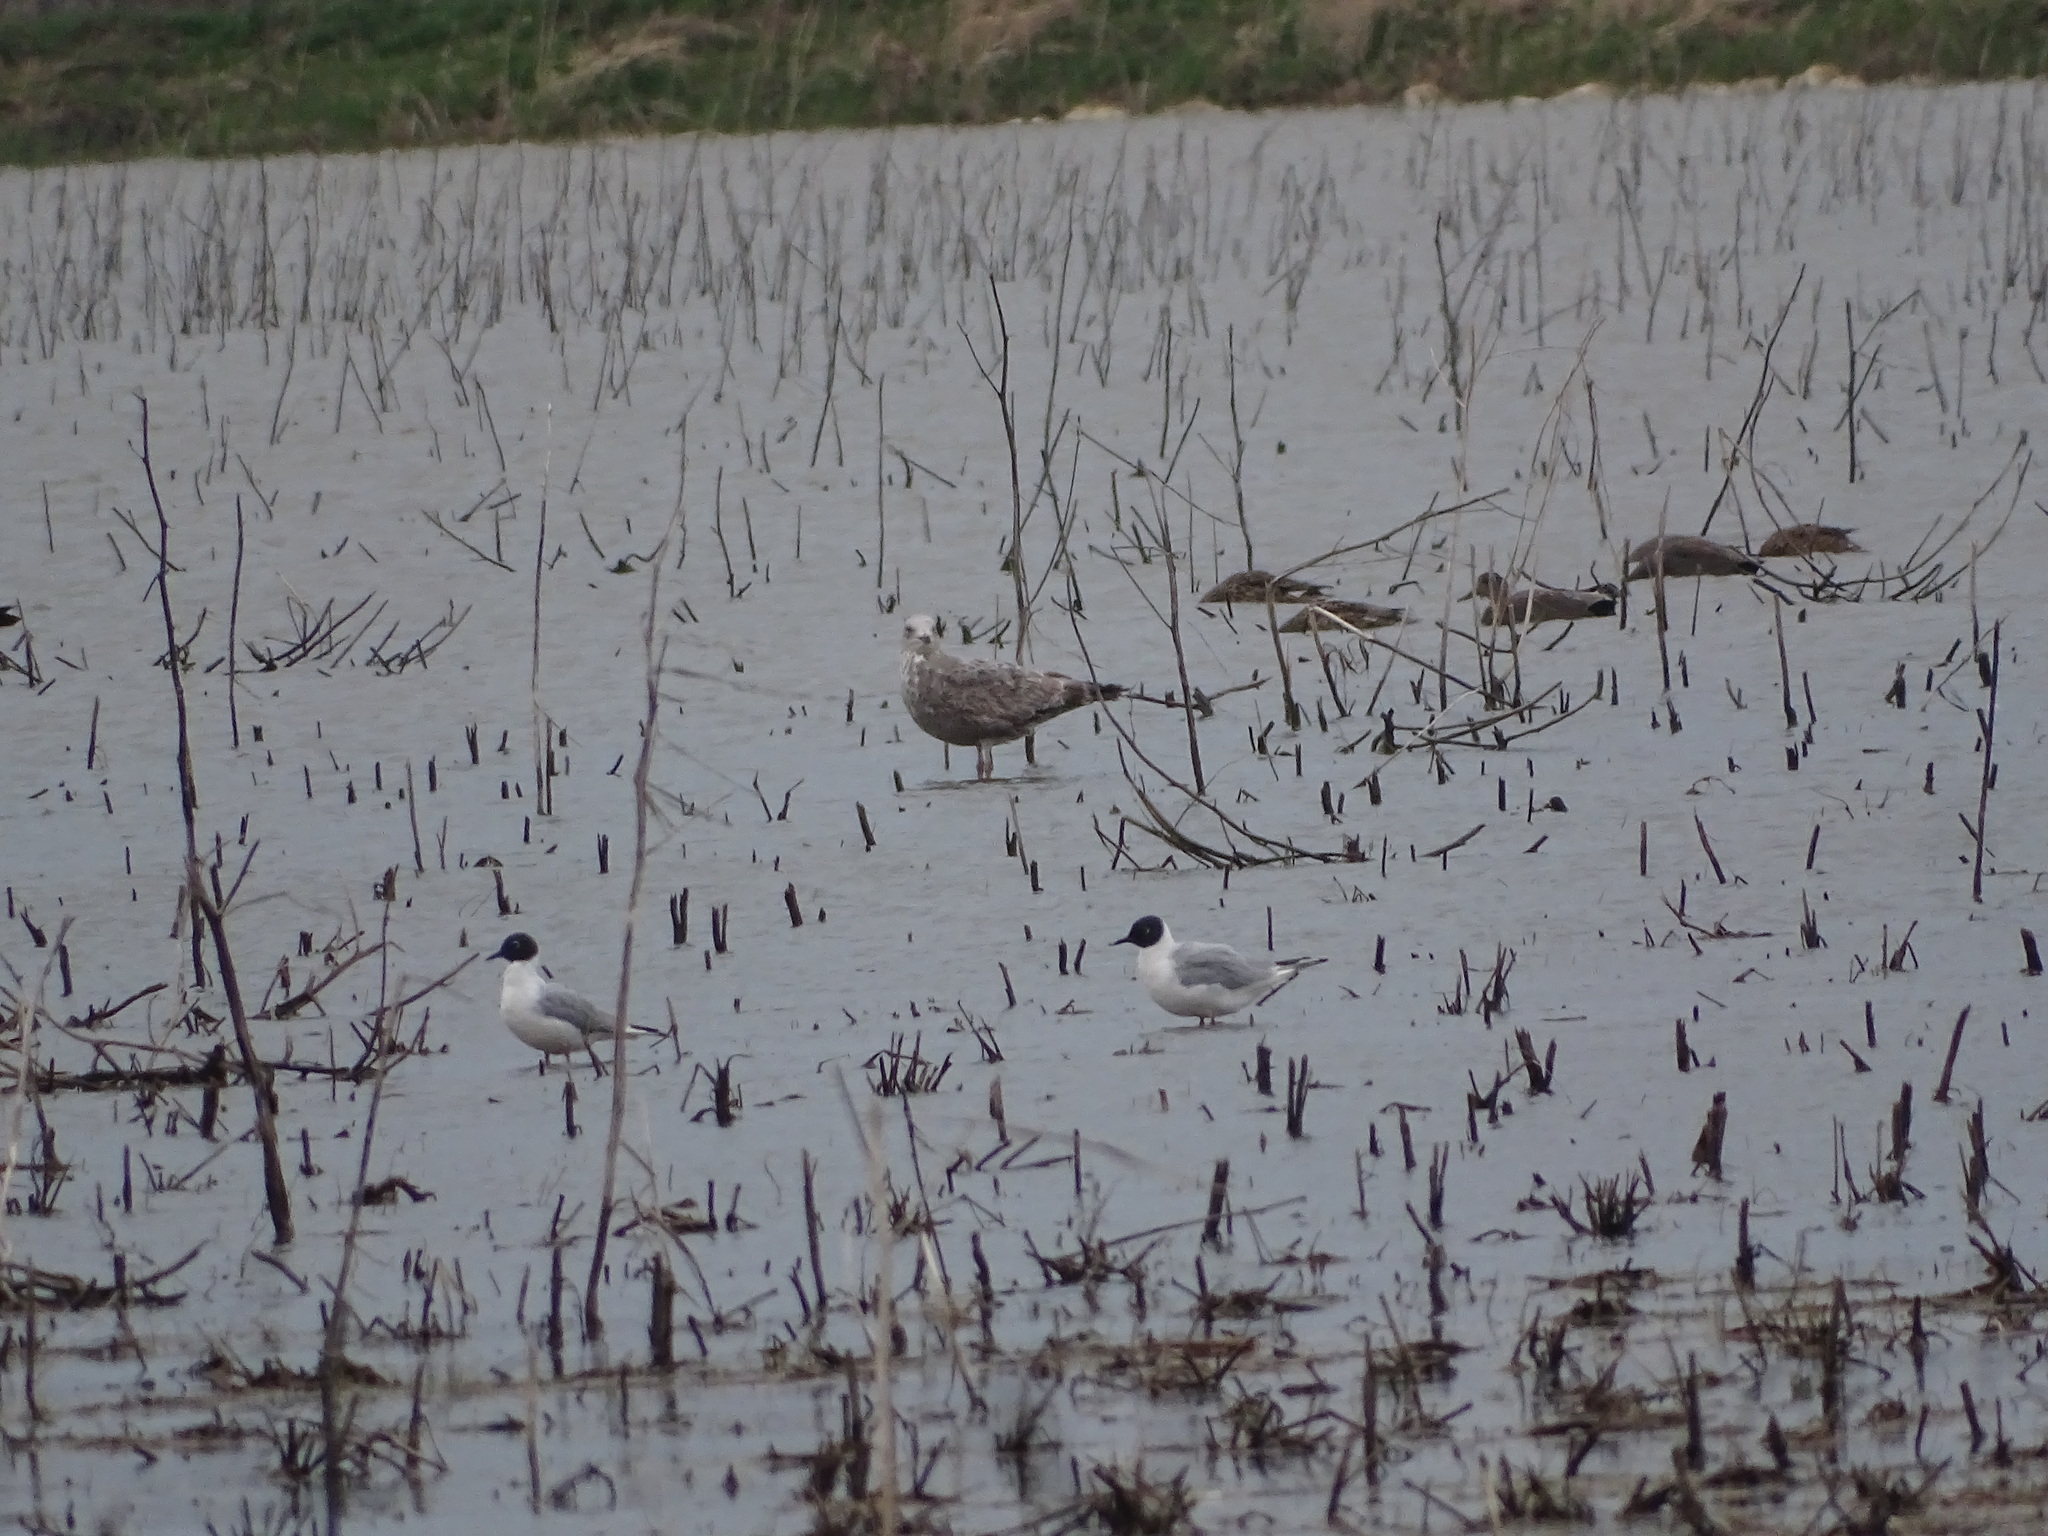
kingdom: Animalia
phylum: Chordata
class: Aves
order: Charadriiformes
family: Laridae
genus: Chroicocephalus
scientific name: Chroicocephalus philadelphia
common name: Bonaparte's gull
